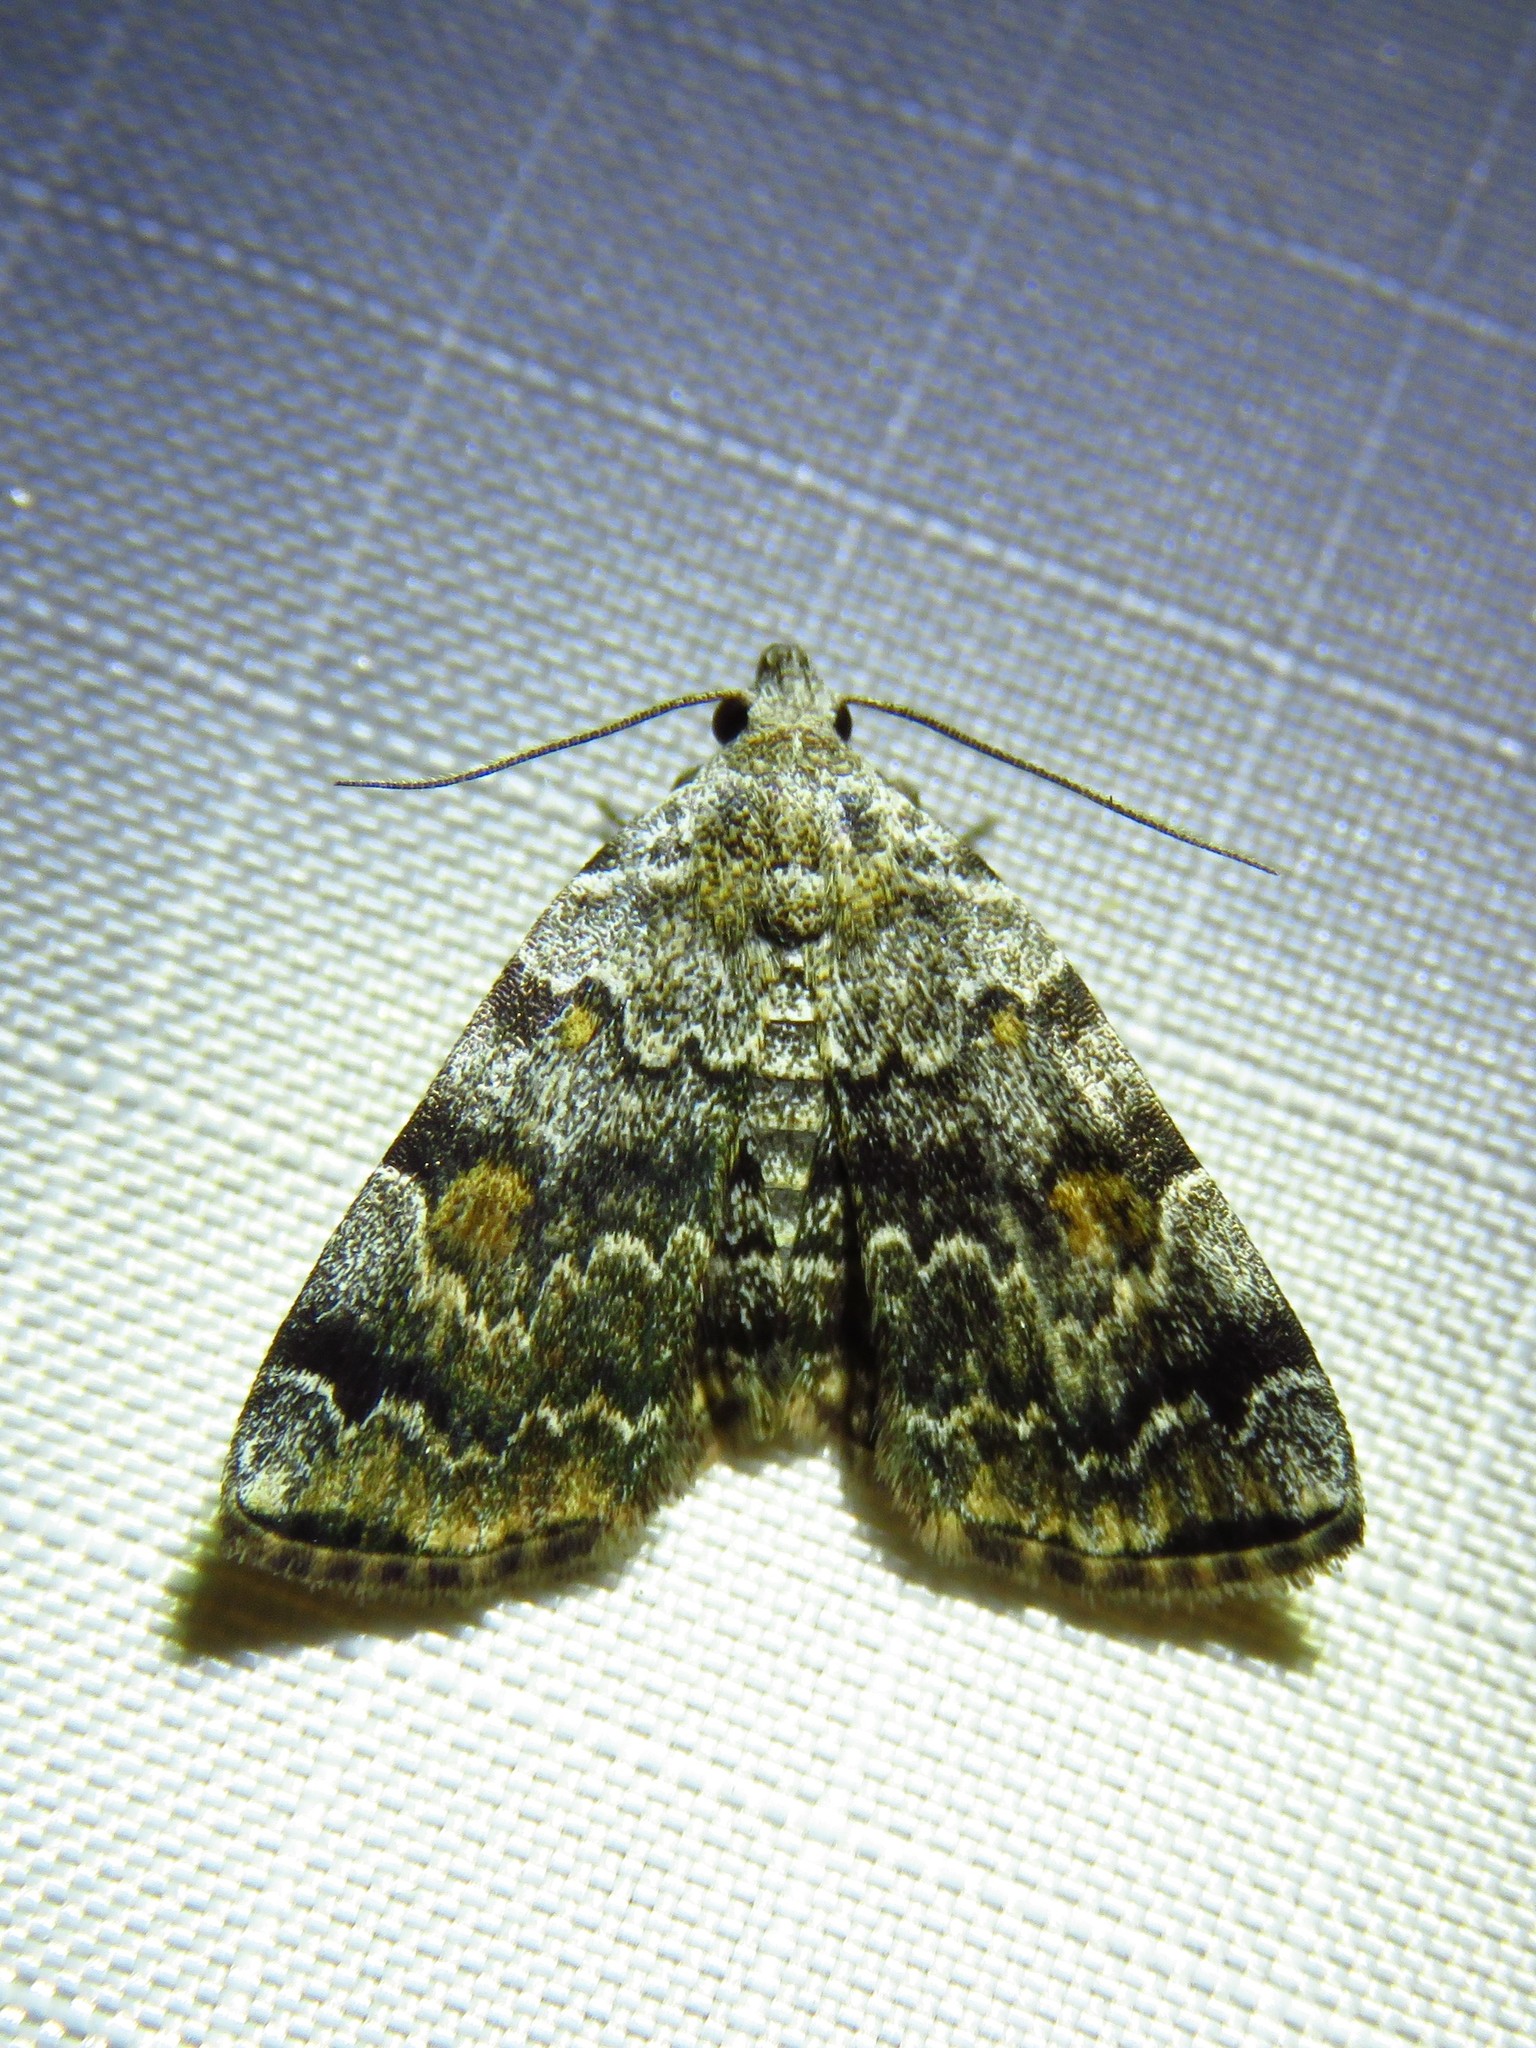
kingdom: Animalia
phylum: Arthropoda
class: Insecta
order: Lepidoptera
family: Erebidae
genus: Idia
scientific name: Idia americalis
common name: American idia moth
